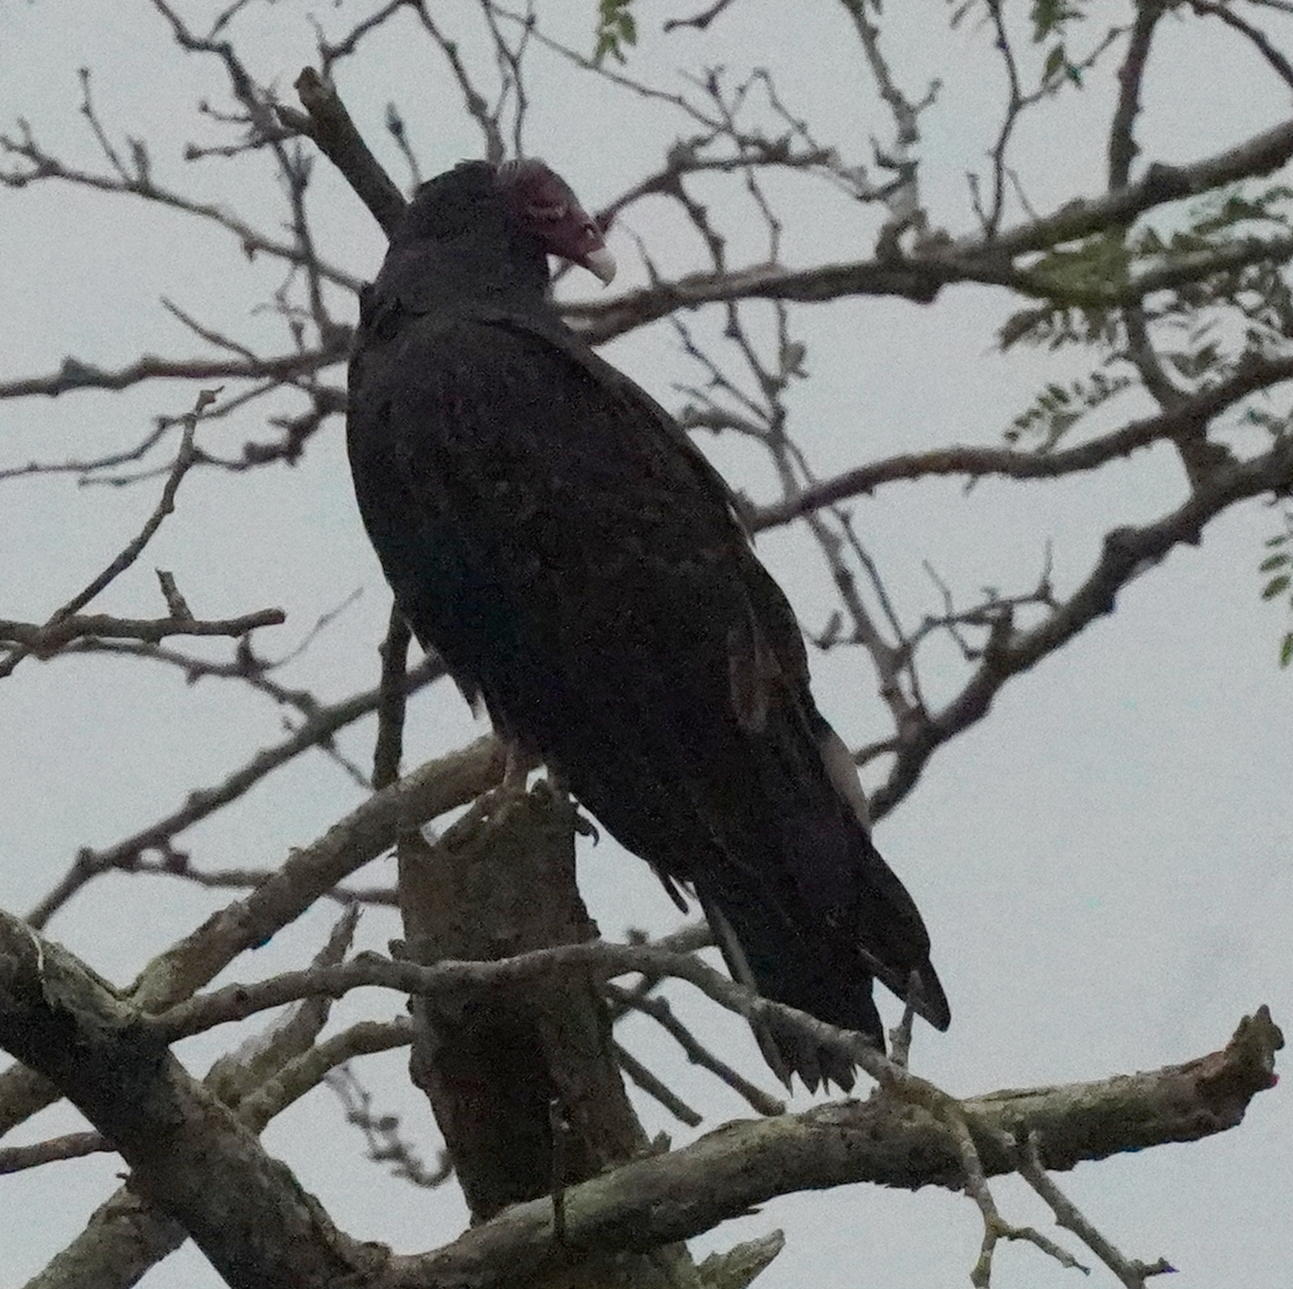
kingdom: Animalia
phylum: Chordata
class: Aves
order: Accipitriformes
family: Cathartidae
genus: Cathartes
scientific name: Cathartes aura
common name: Turkey vulture
